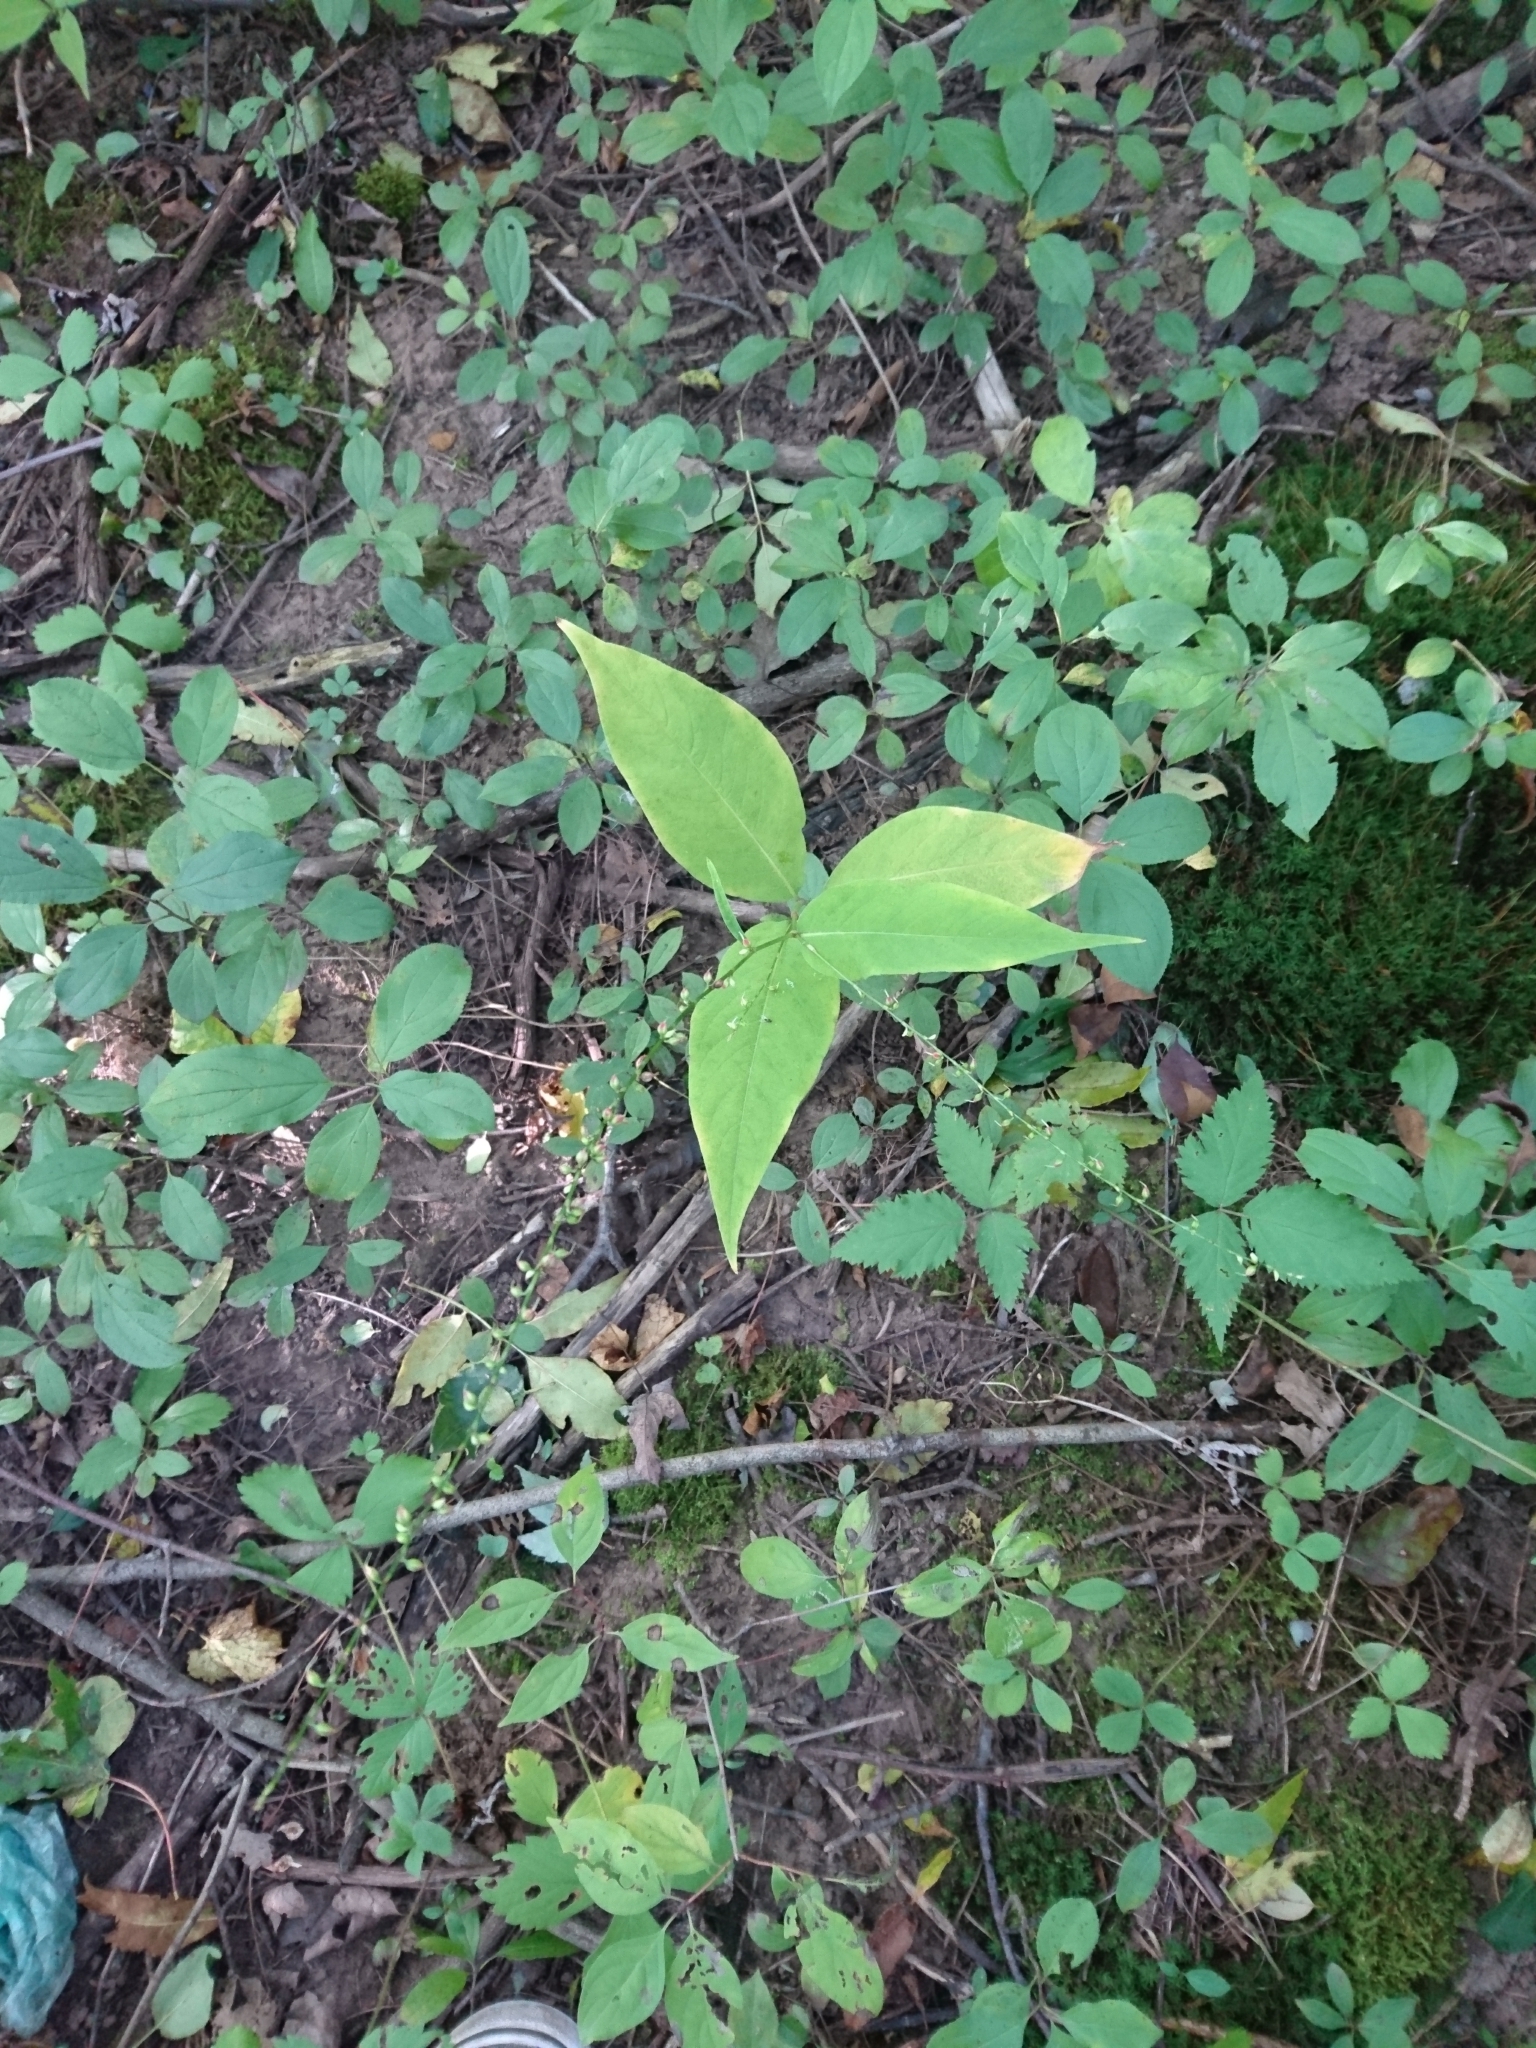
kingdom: Plantae
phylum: Tracheophyta
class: Magnoliopsida
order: Caryophyllales
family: Polygonaceae
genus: Persicaria
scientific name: Persicaria virginiana
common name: Jumpseed
